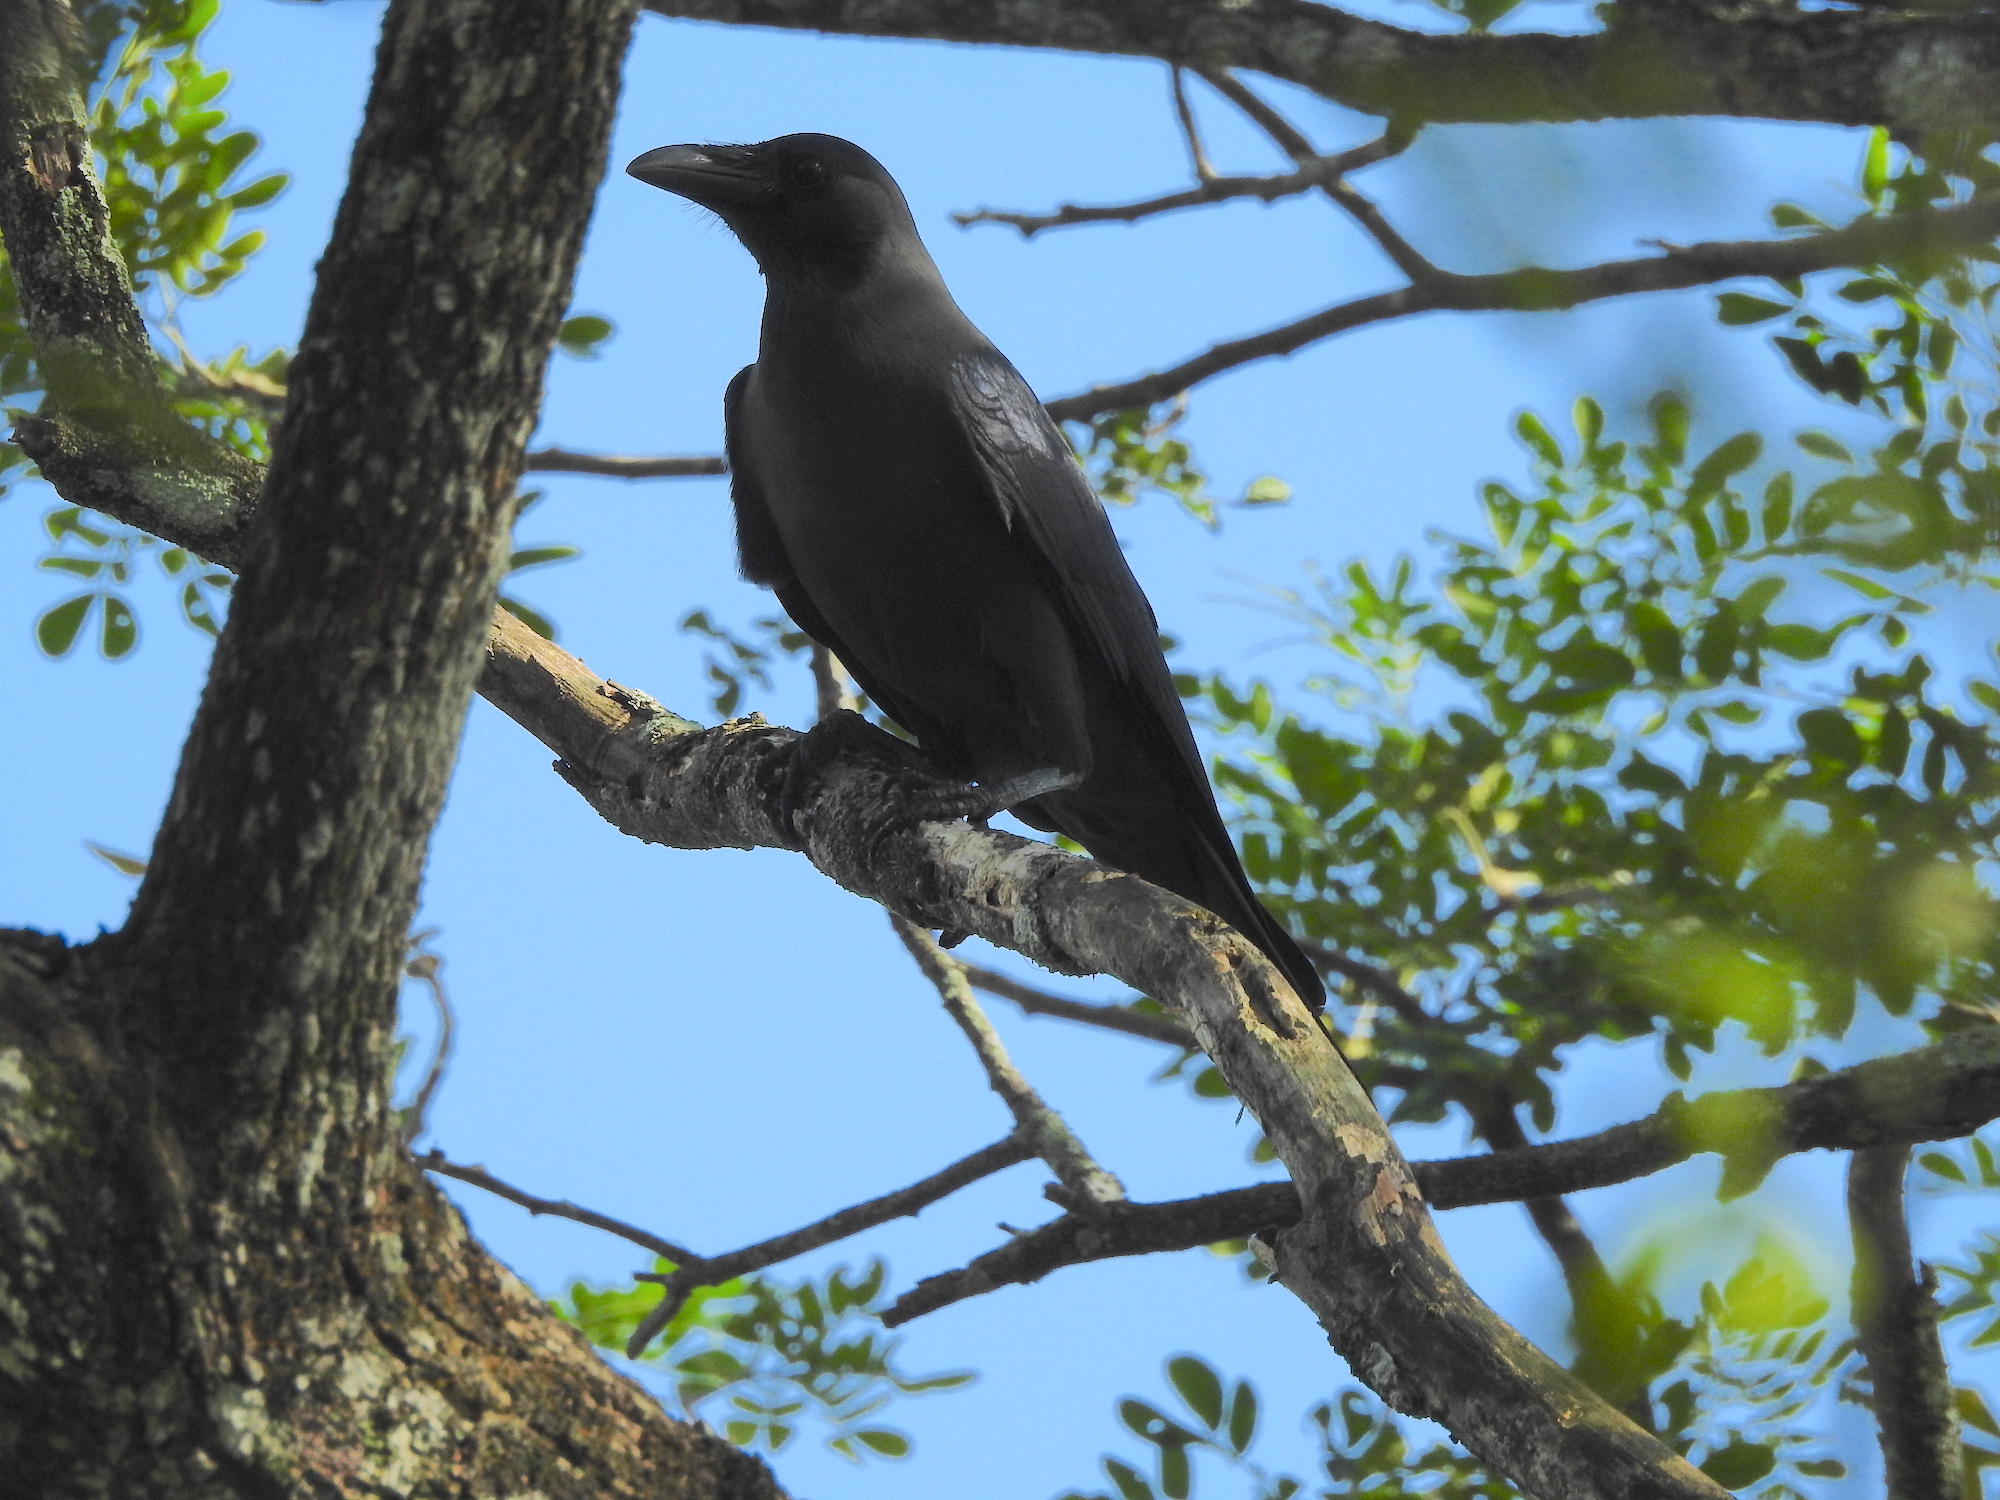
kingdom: Animalia
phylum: Chordata
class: Aves
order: Passeriformes
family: Corvidae
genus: Corvus
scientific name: Corvus splendens
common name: House crow
